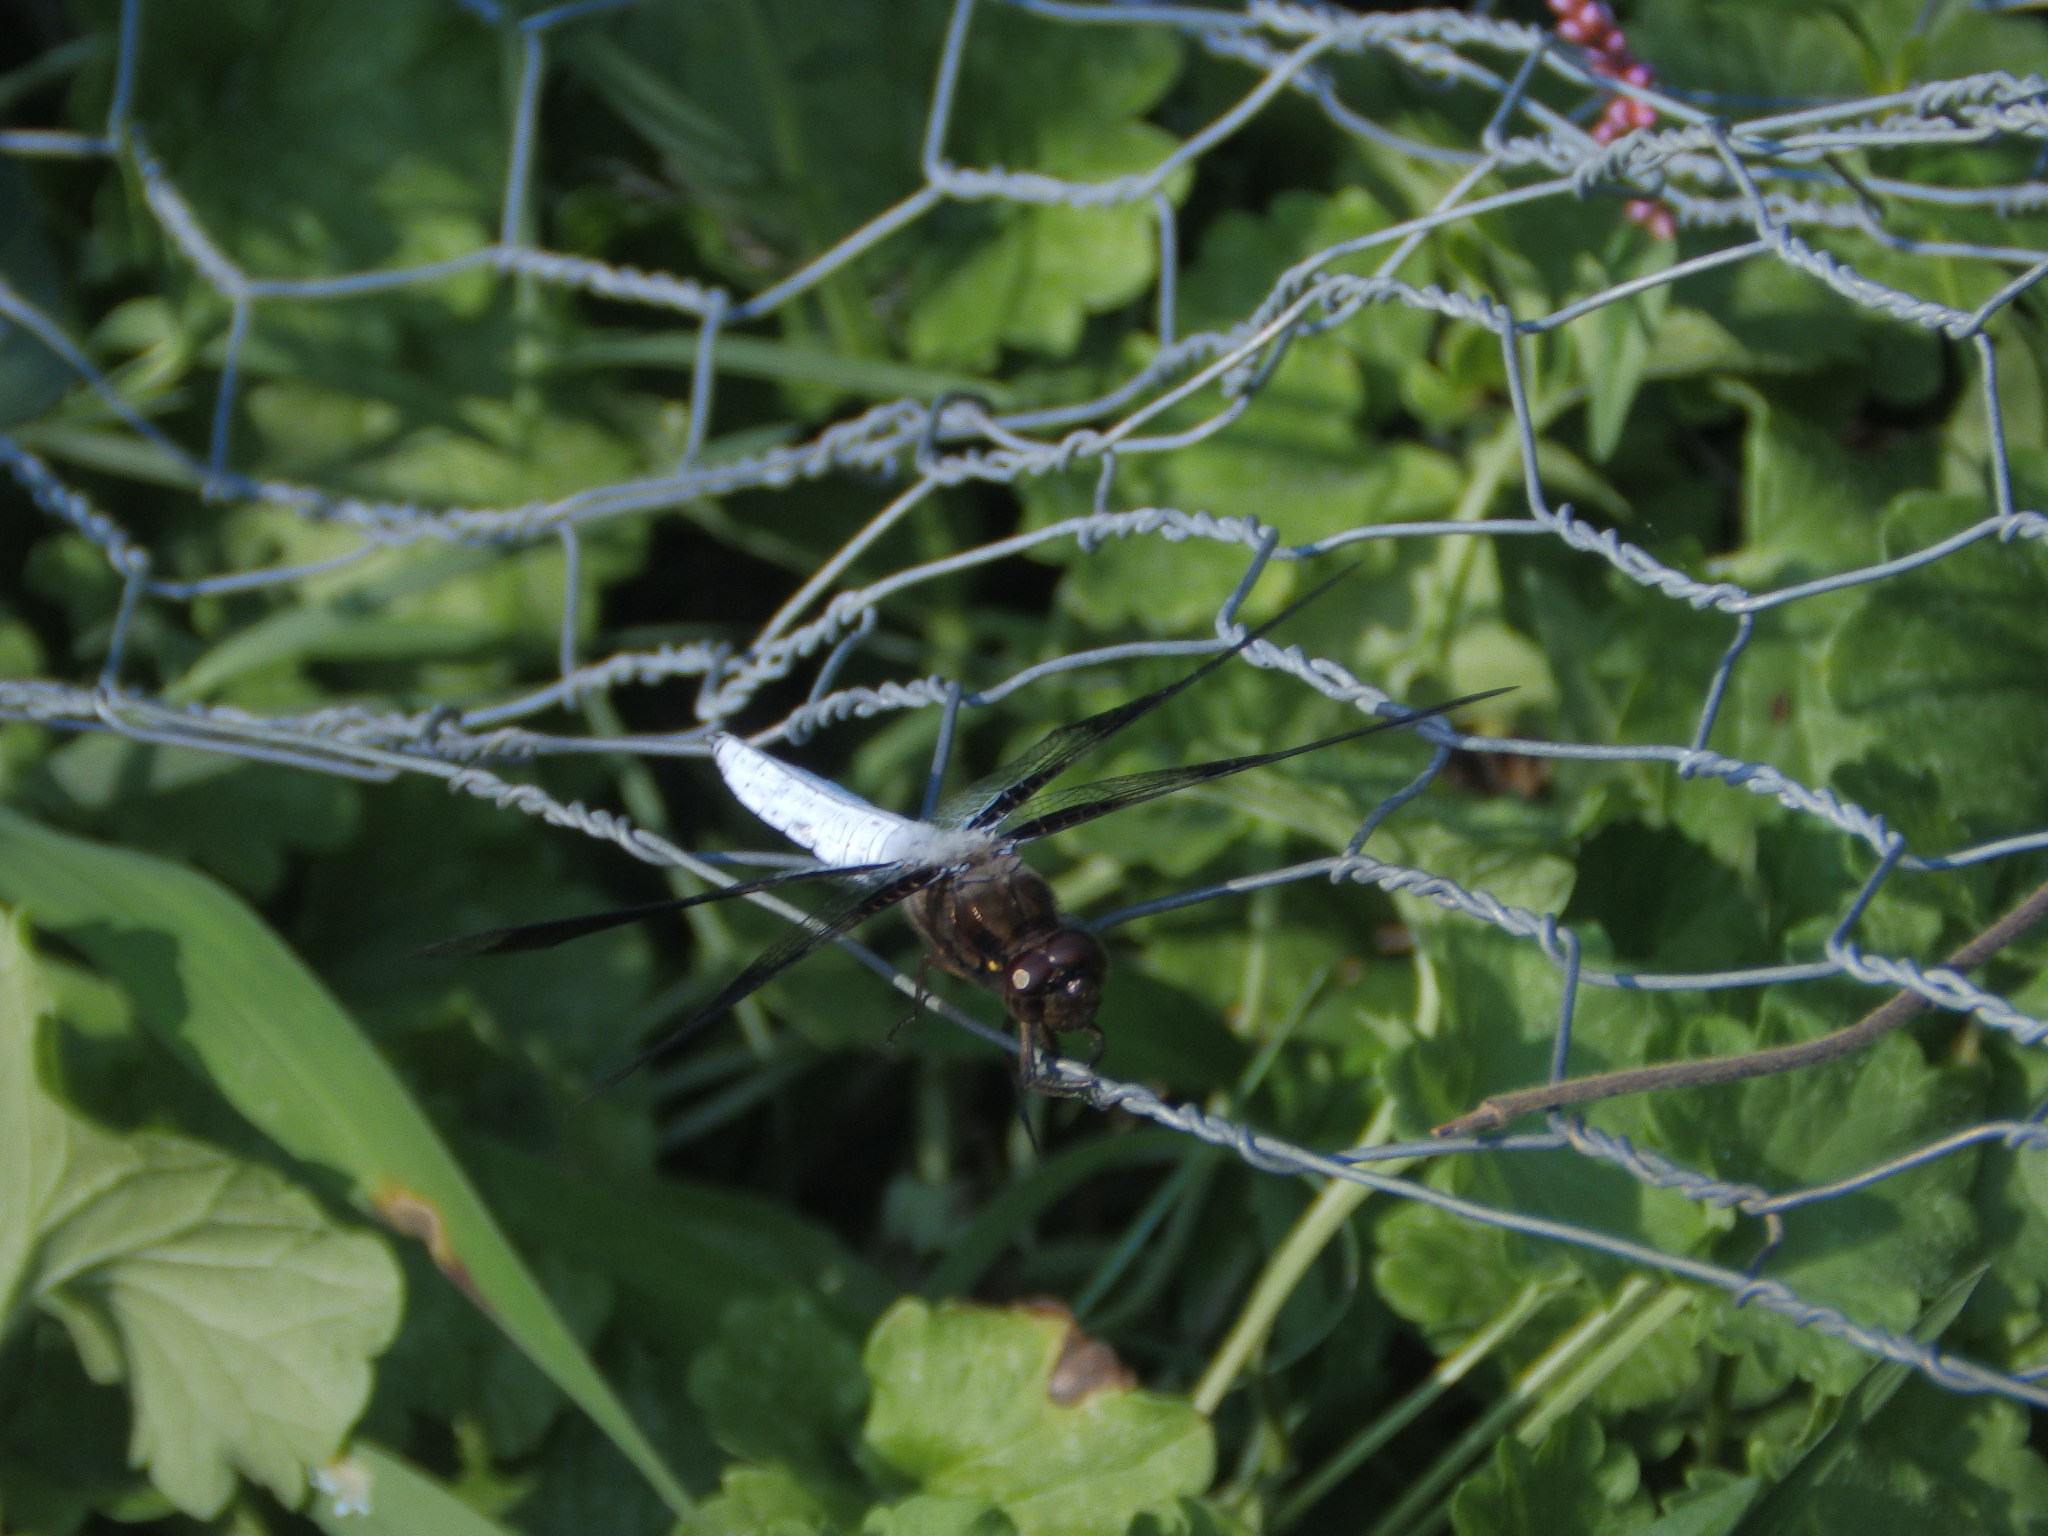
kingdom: Animalia
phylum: Arthropoda
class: Insecta
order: Odonata
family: Libellulidae
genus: Plathemis
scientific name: Plathemis lydia
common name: Common whitetail
